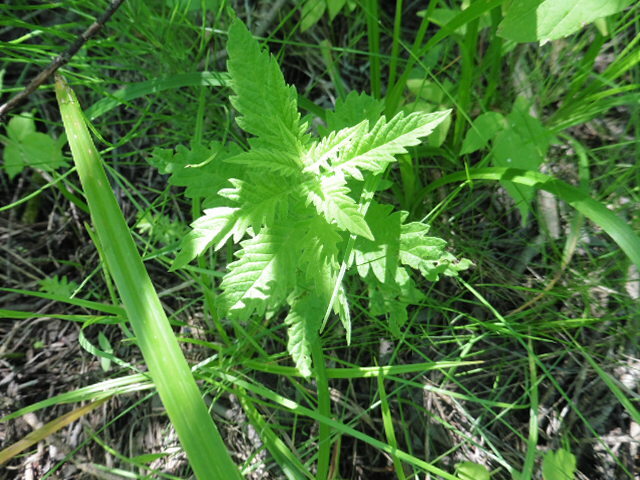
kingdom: Plantae
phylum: Tracheophyta
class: Magnoliopsida
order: Lamiales
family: Lamiaceae
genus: Lycopus
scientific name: Lycopus europaeus
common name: European bugleweed
